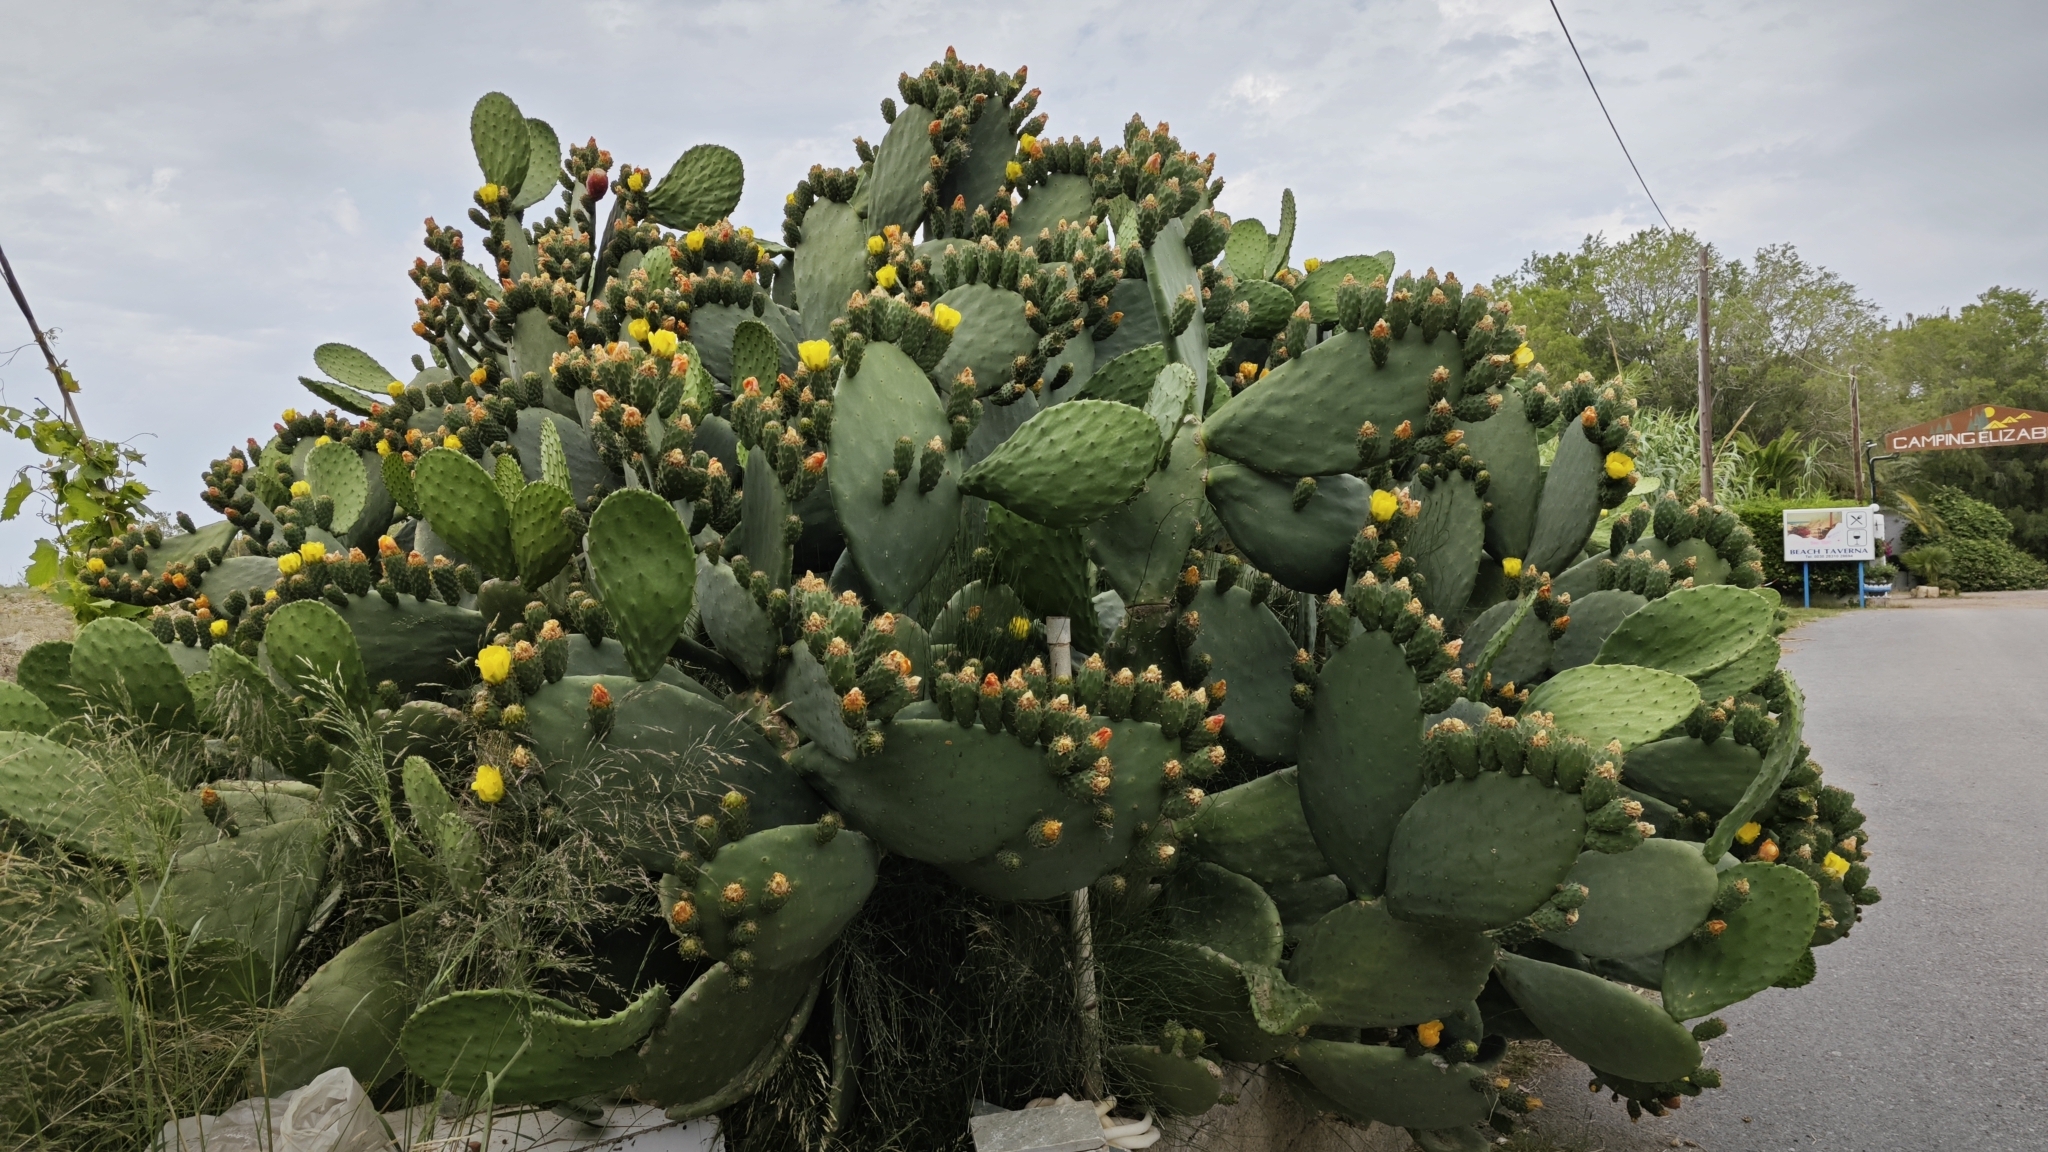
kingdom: Plantae
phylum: Tracheophyta
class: Magnoliopsida
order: Caryophyllales
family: Cactaceae
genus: Opuntia
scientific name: Opuntia ficus-indica
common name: Barbary fig
